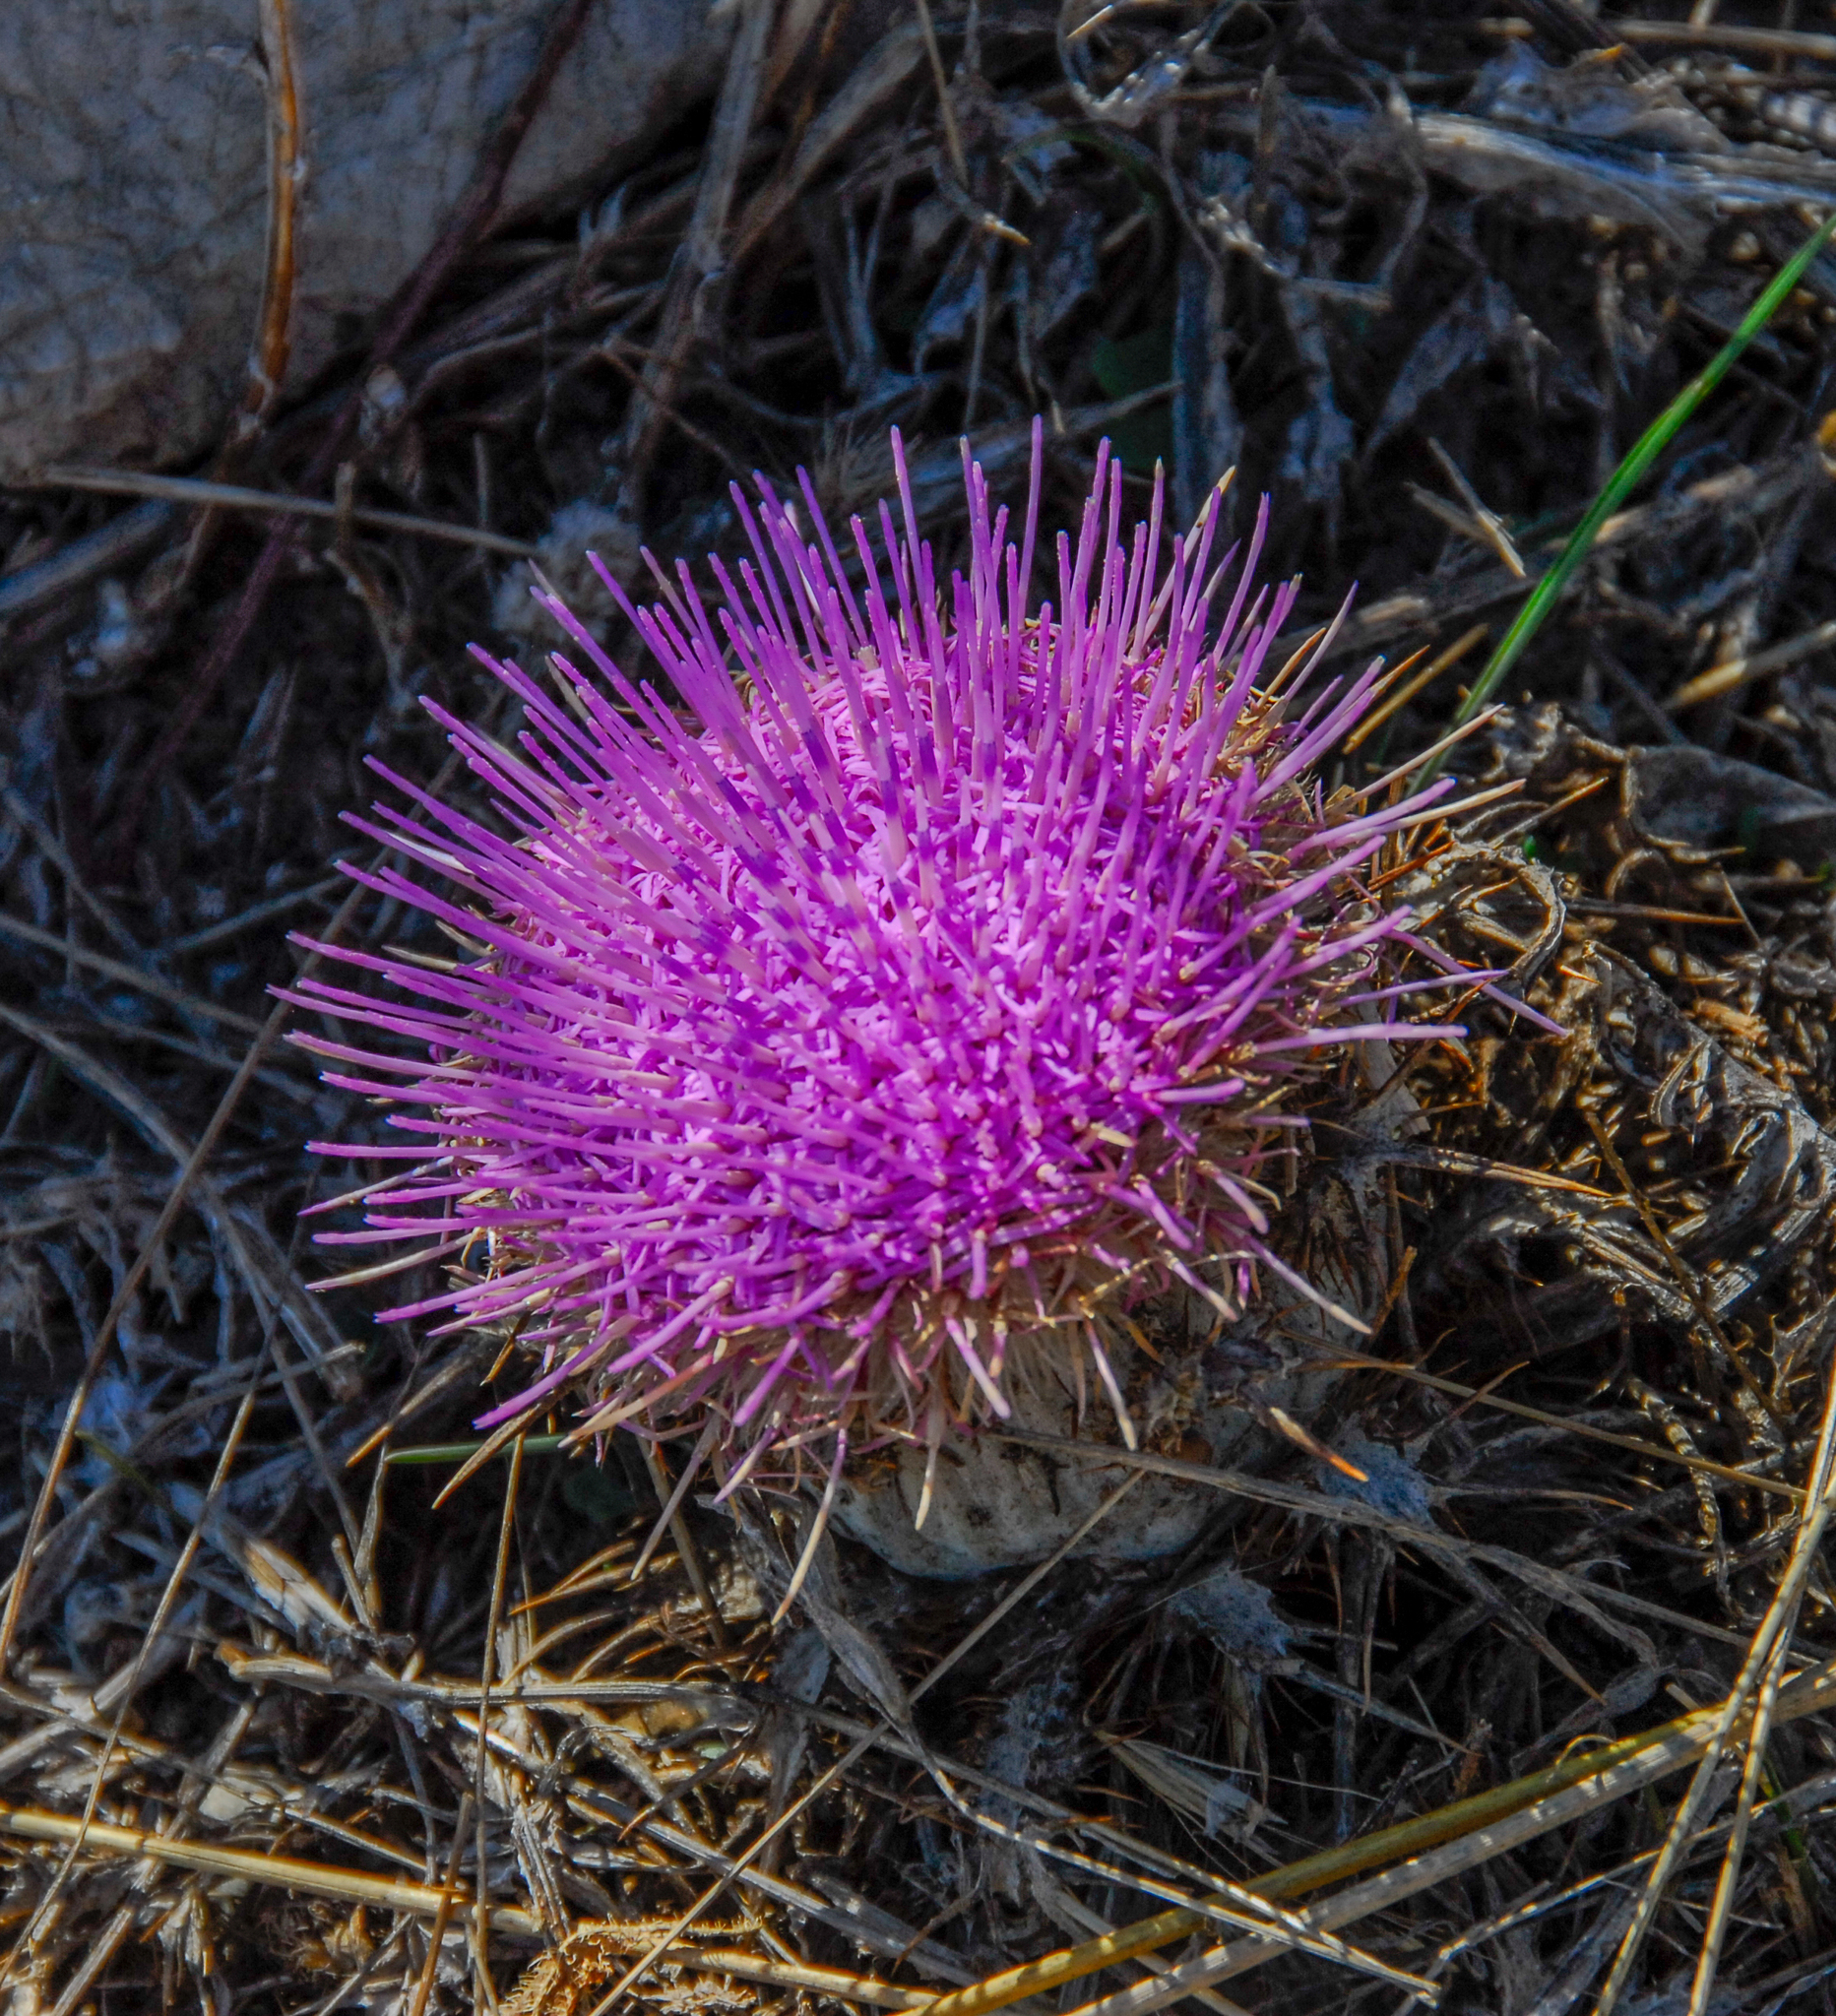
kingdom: Plantae
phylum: Tracheophyta
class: Magnoliopsida
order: Asterales
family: Asteraceae
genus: Chamaeleon
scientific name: Chamaeleon gummifer
